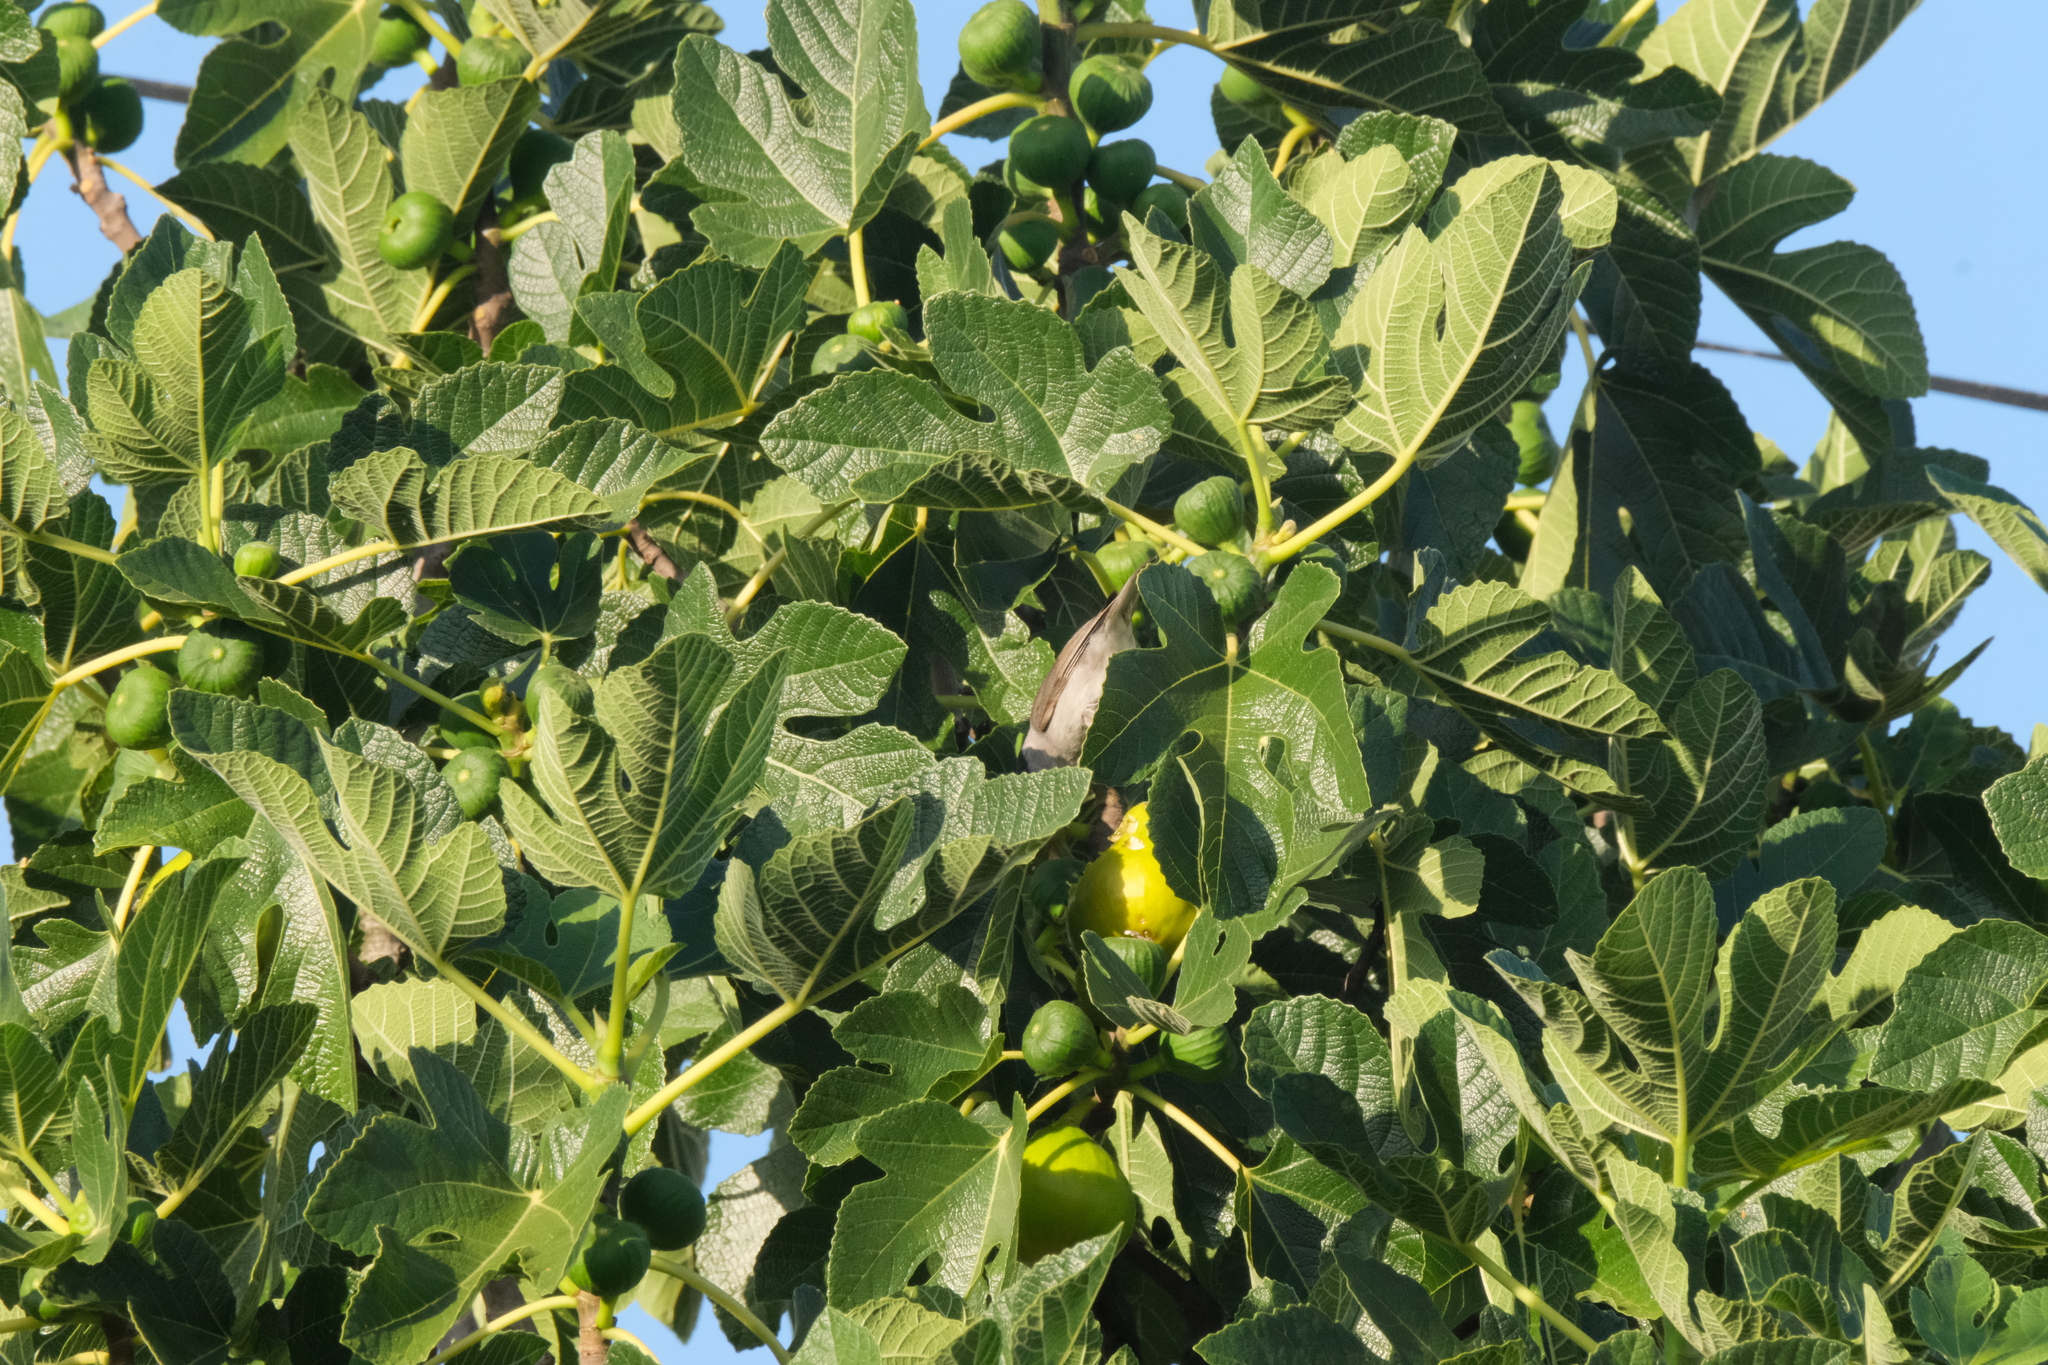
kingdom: Animalia
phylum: Chordata
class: Aves
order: Passeriformes
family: Sylviidae
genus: Sylvia
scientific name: Sylvia atricapilla
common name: Eurasian blackcap
